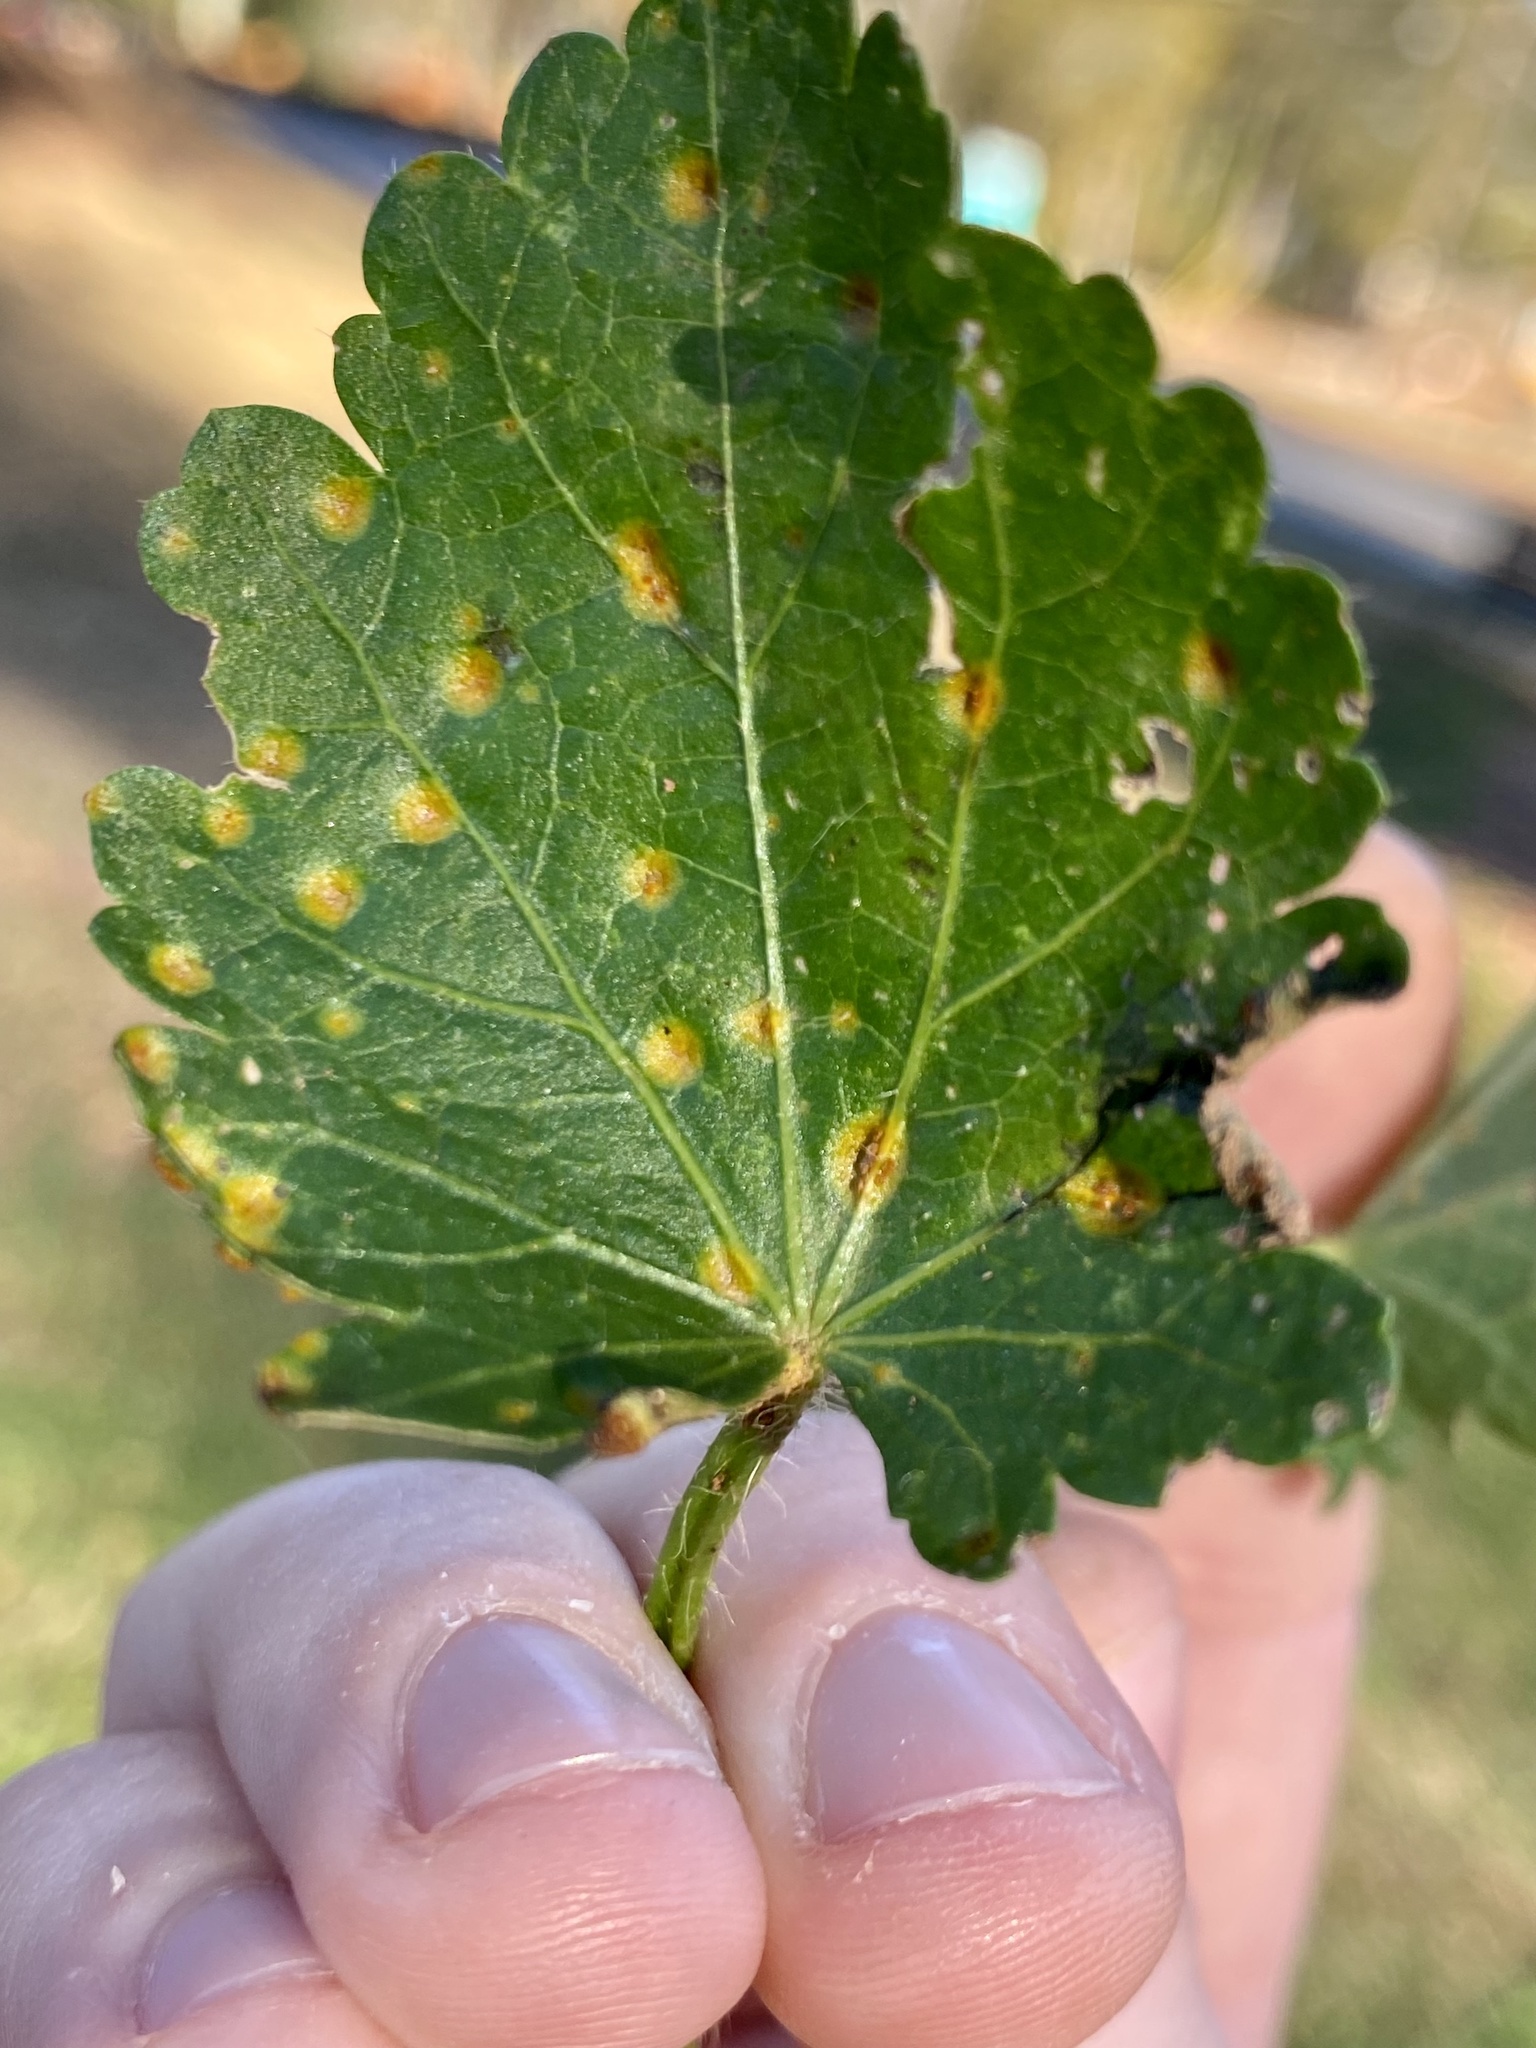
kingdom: Fungi
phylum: Basidiomycota
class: Pucciniomycetes
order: Pucciniales
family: Pucciniaceae
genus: Puccinia
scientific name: Puccinia modiolae
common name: Rust of bristlemallow
